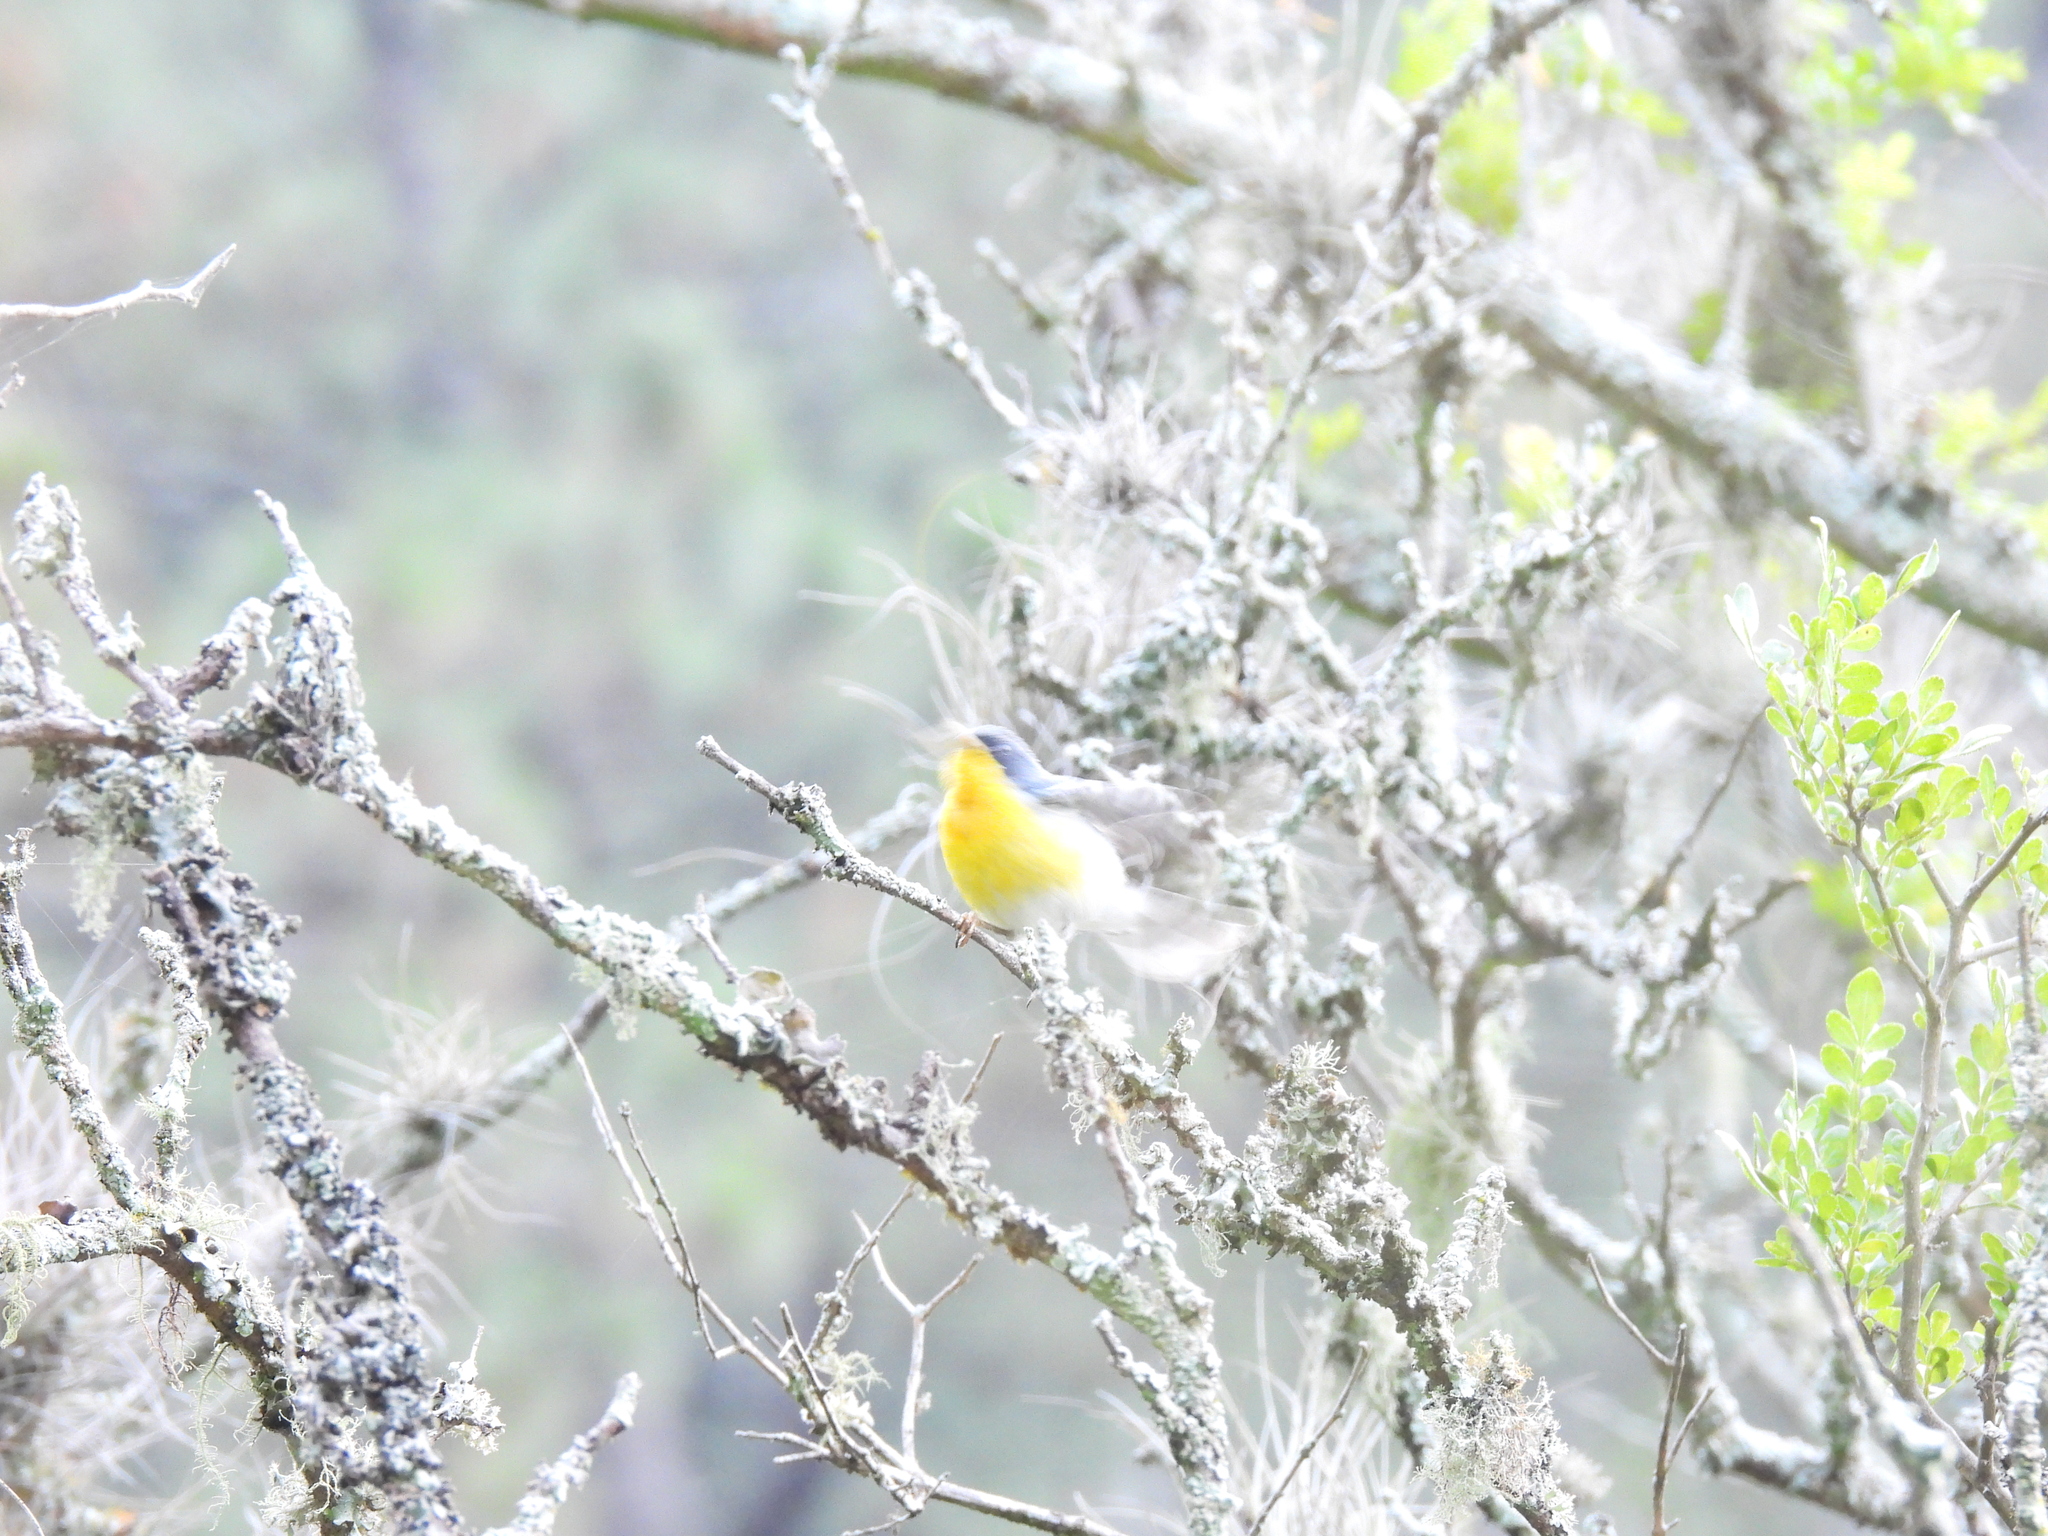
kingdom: Animalia
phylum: Chordata
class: Aves
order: Passeriformes
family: Parulidae
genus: Setophaga
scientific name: Setophaga pitiayumi
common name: Tropical parula
